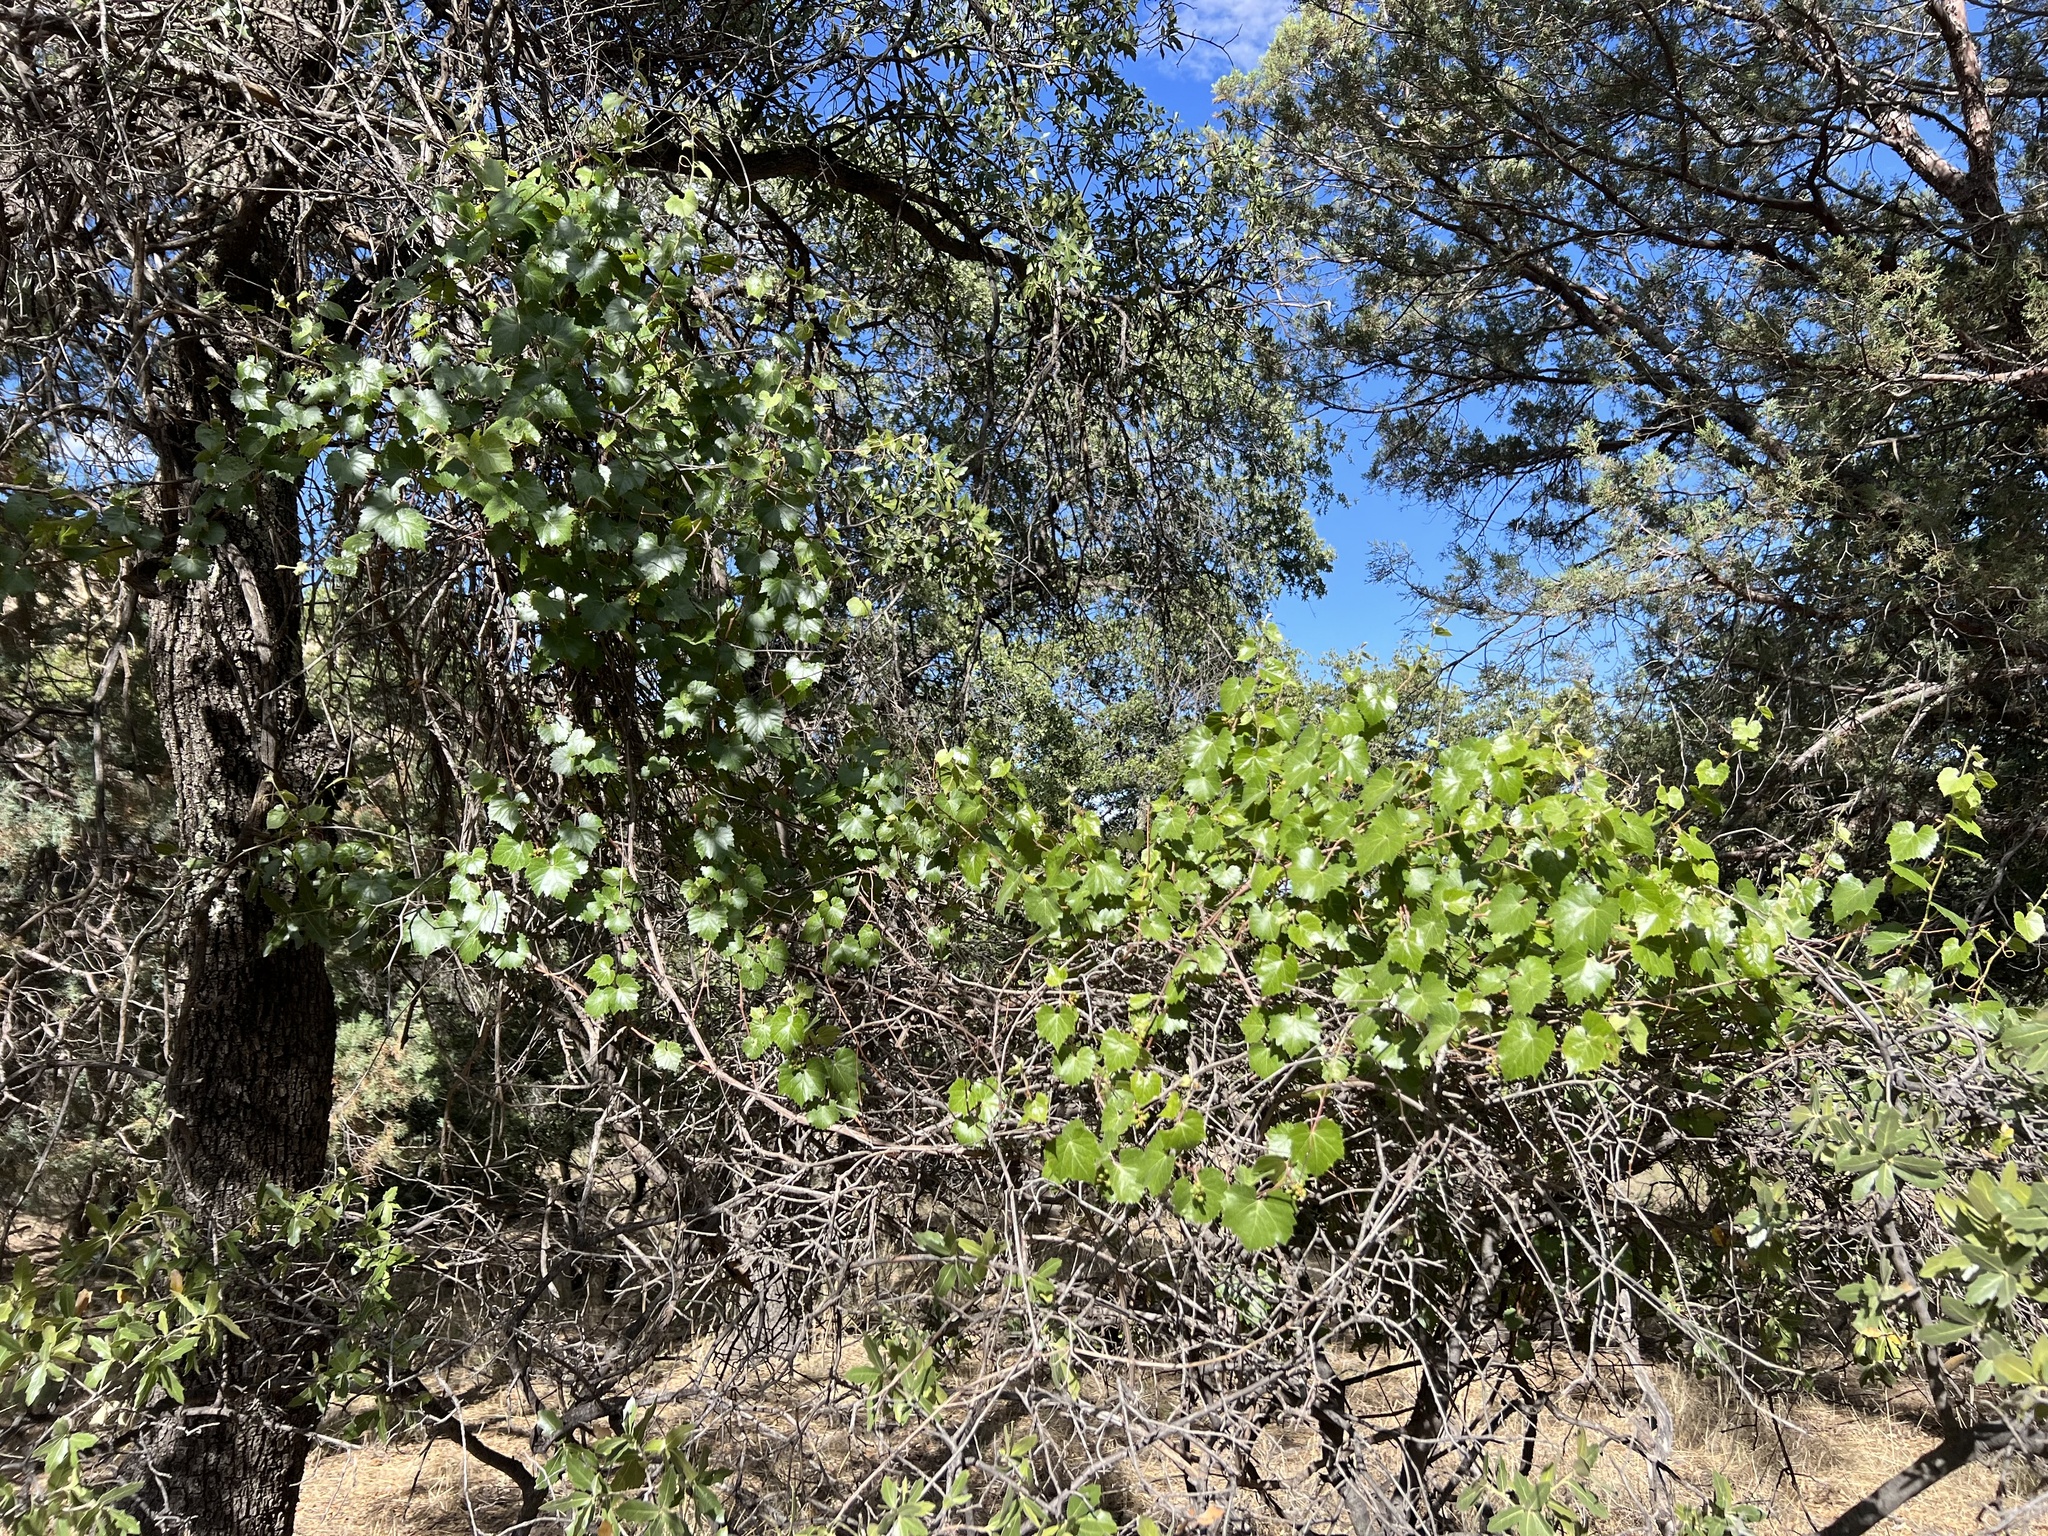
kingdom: Plantae
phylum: Tracheophyta
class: Magnoliopsida
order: Vitales
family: Vitaceae
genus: Vitis
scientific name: Vitis arizonica
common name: Canyon grape
